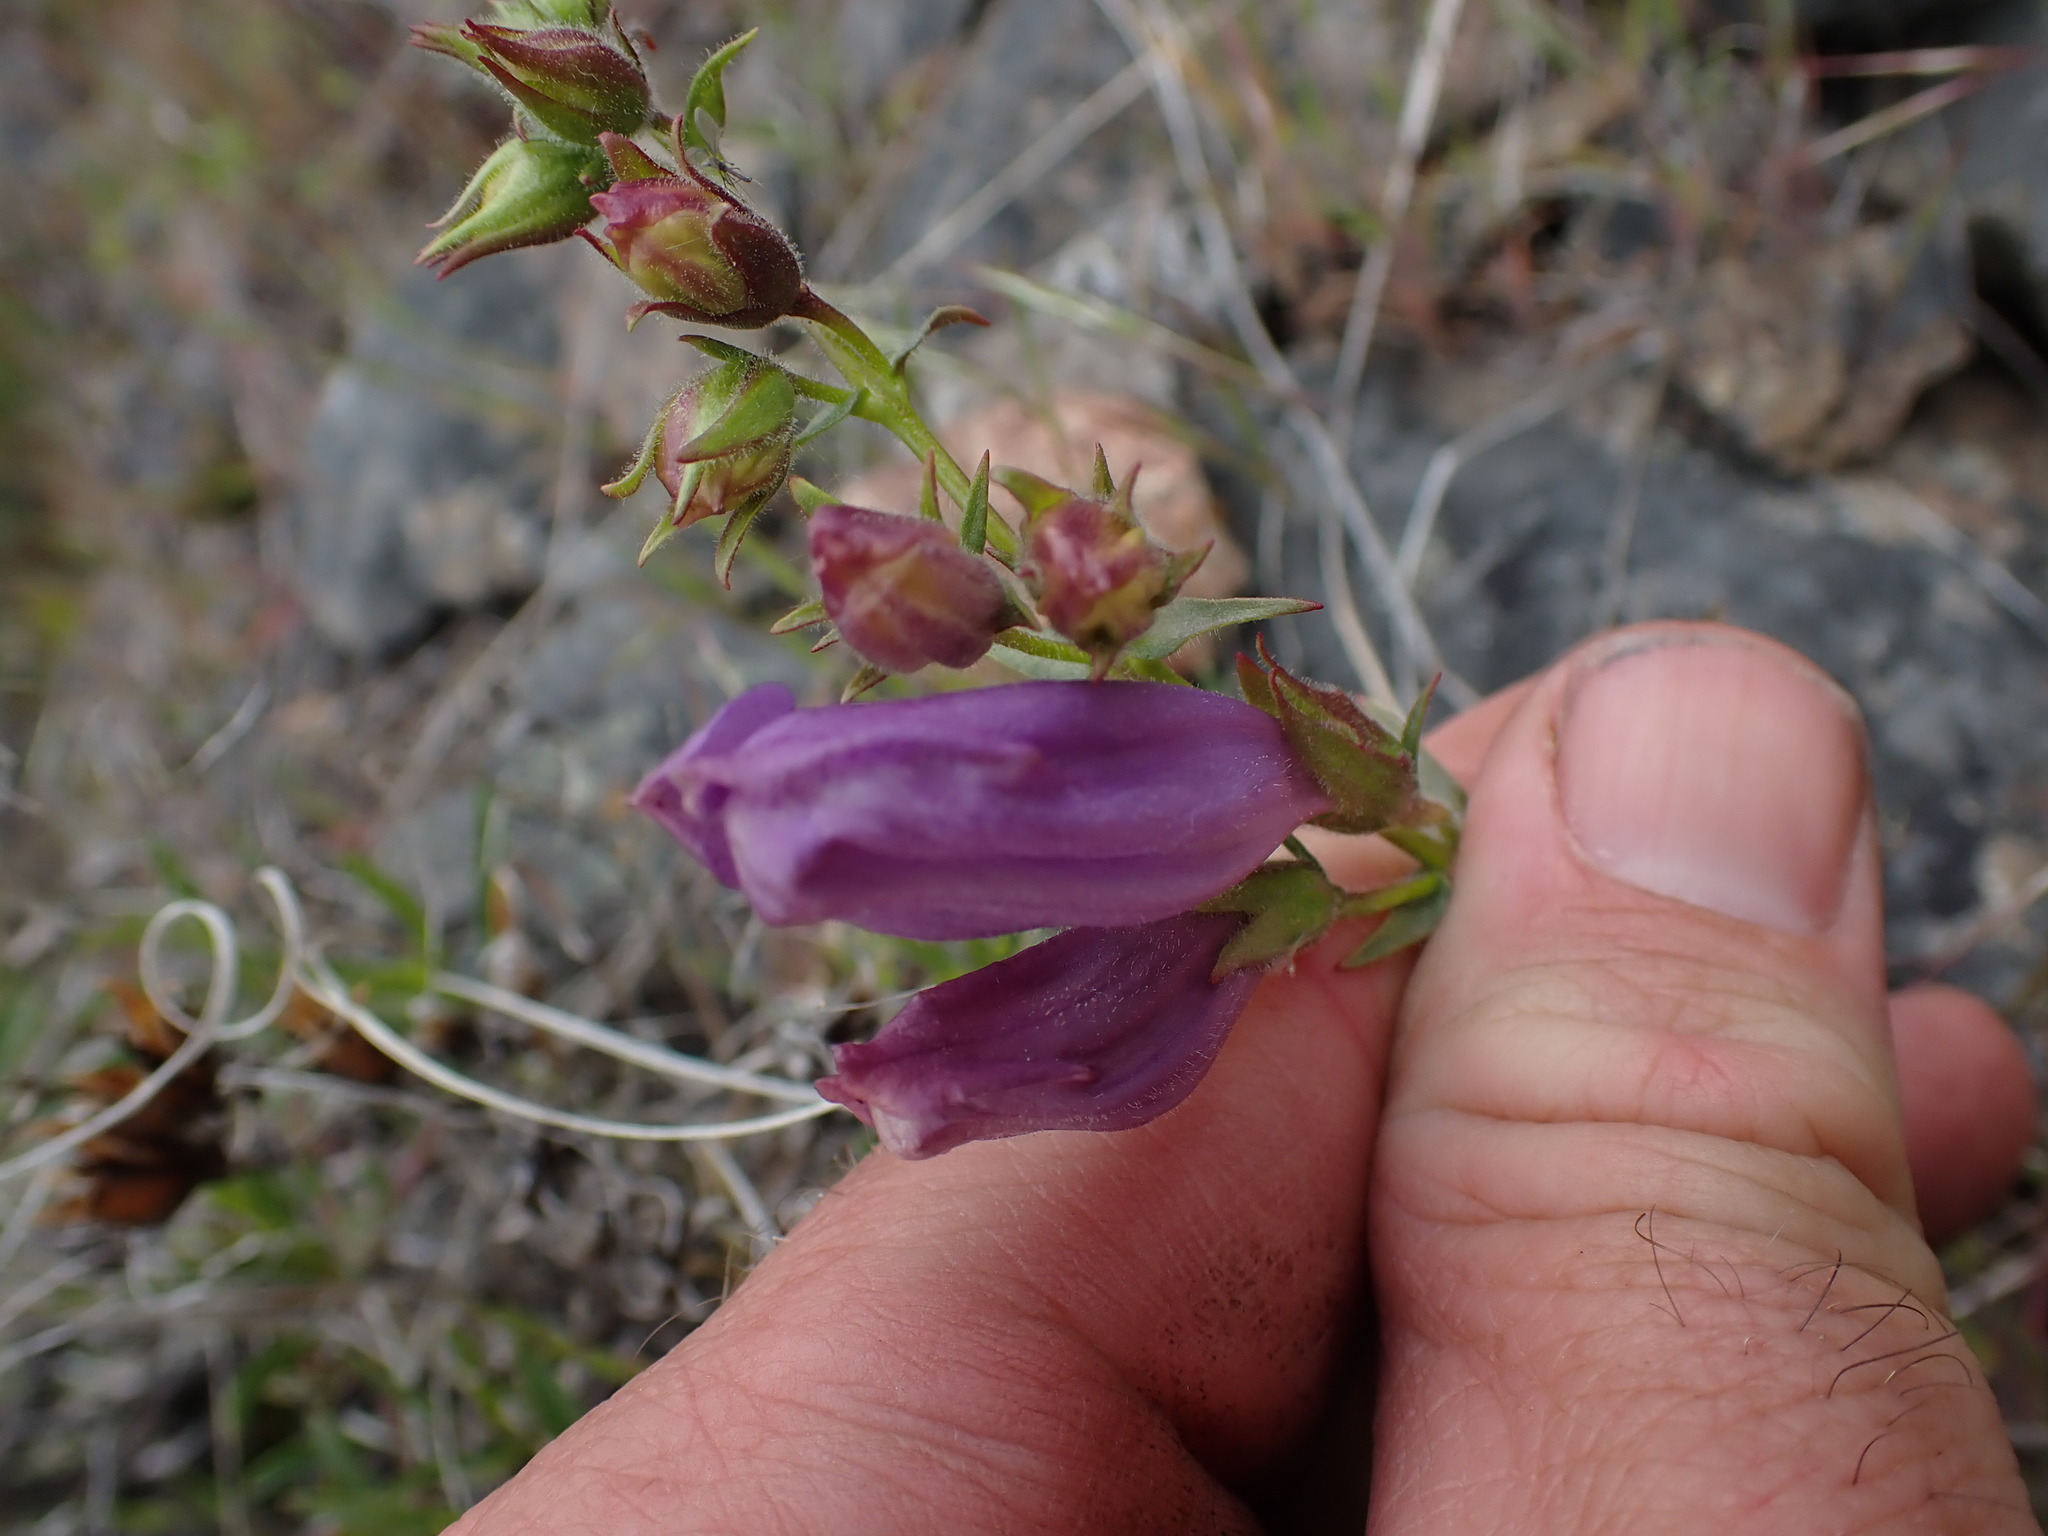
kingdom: Plantae
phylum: Tracheophyta
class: Magnoliopsida
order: Lamiales
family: Plantaginaceae
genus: Penstemon
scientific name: Penstemon fruticosus
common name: Bush penstemon
